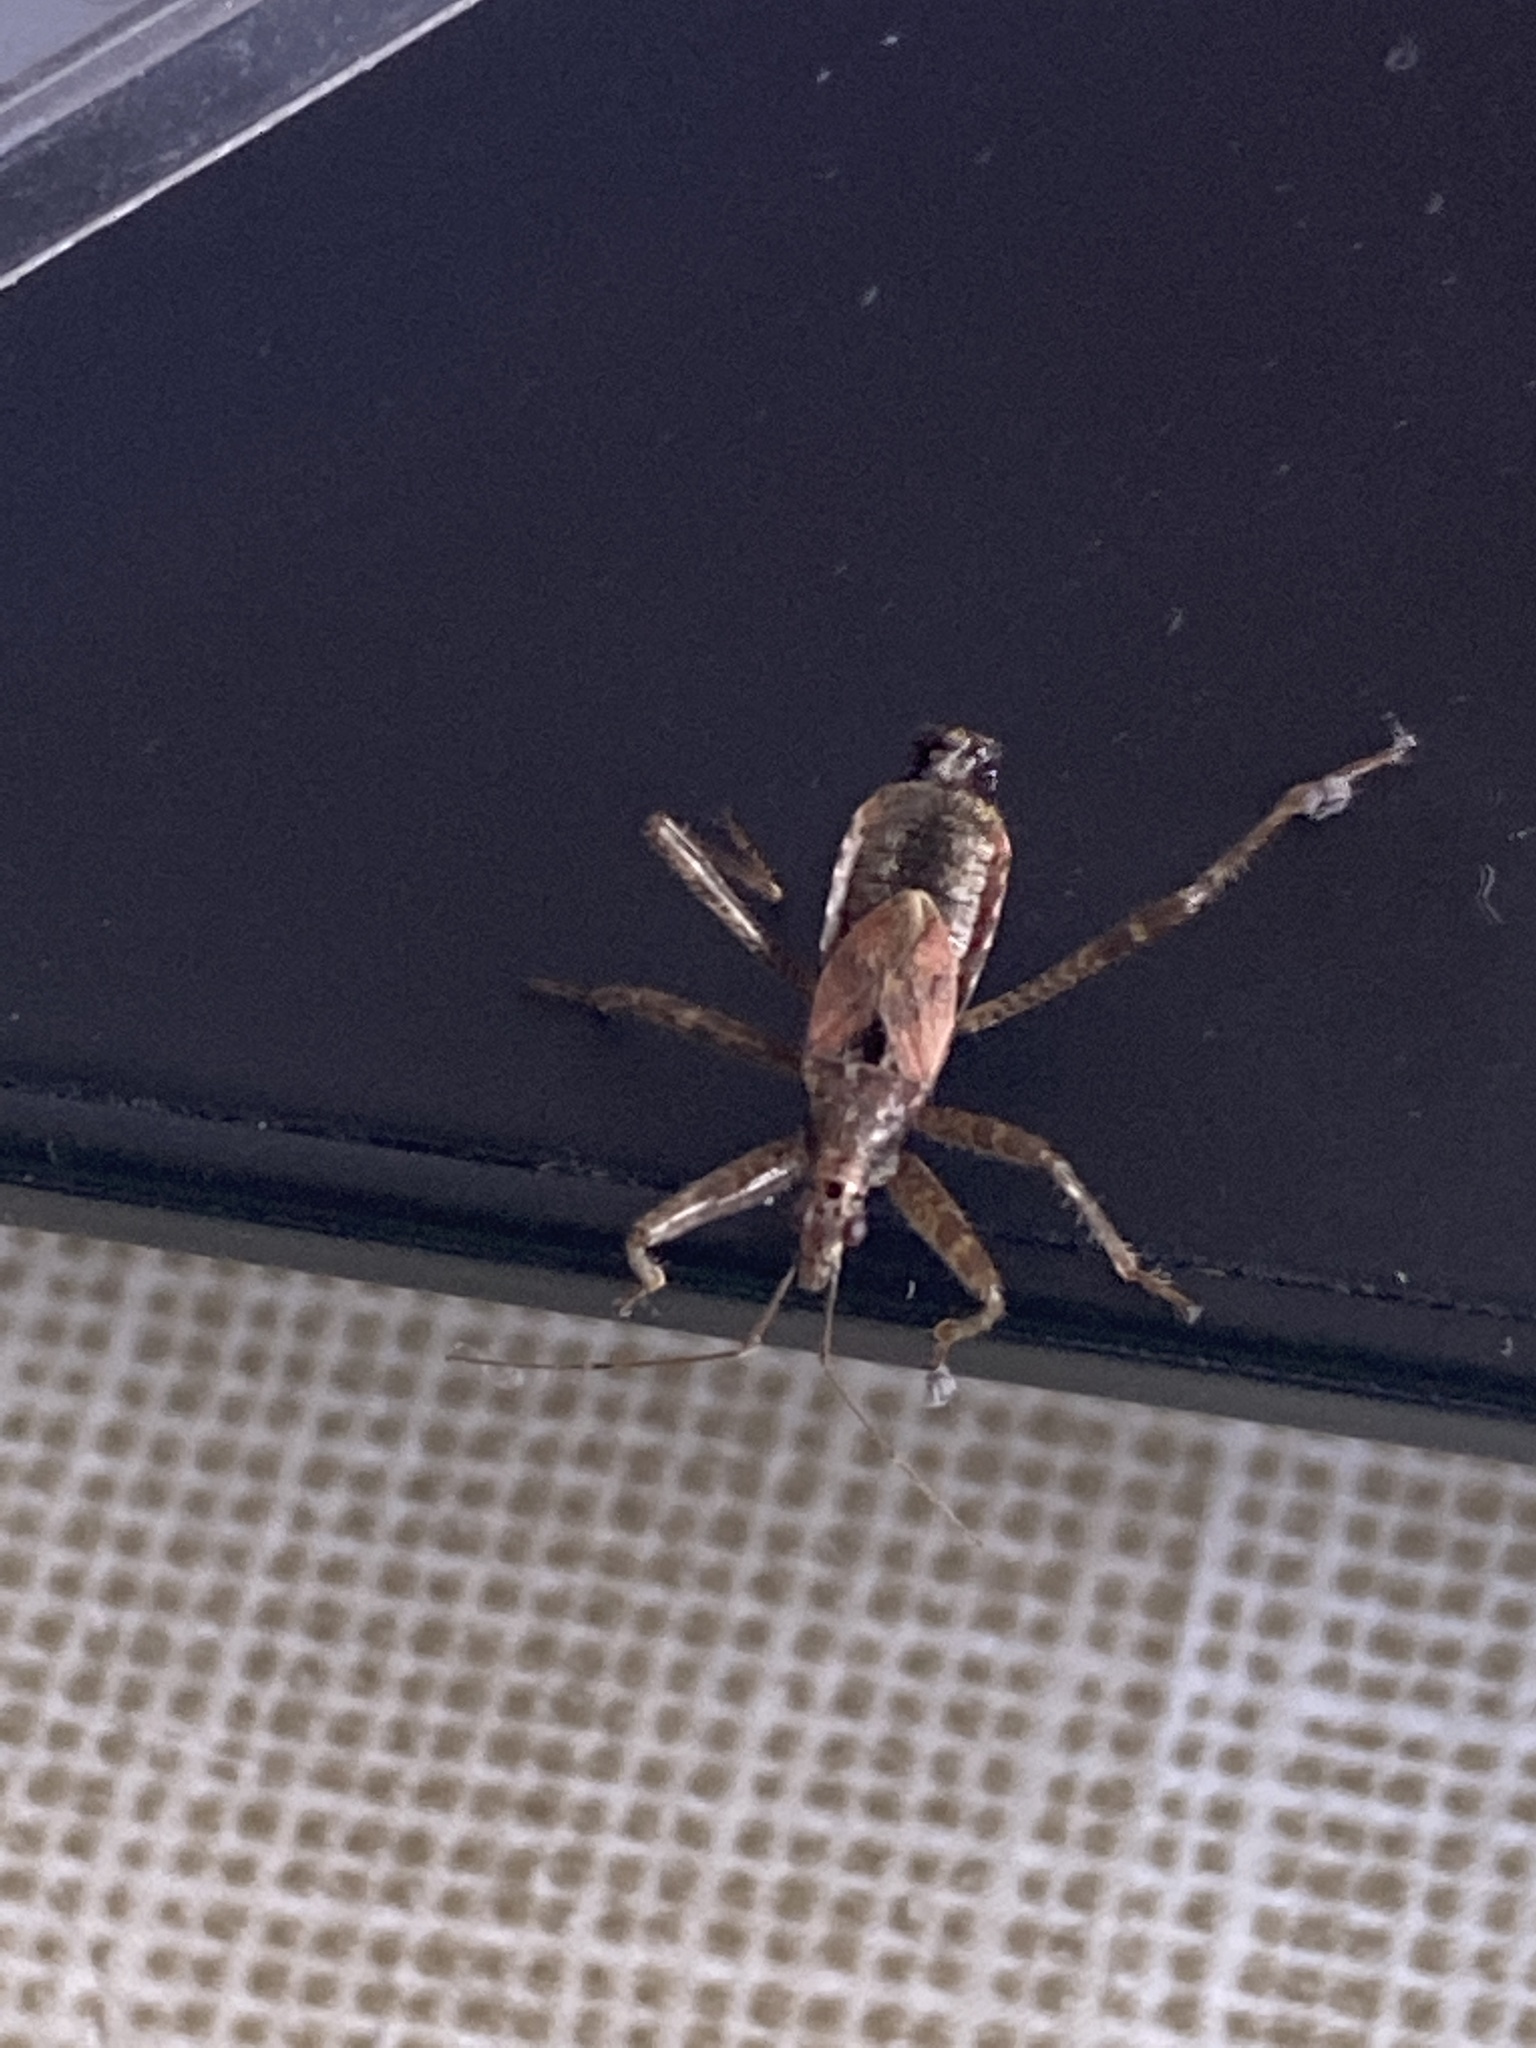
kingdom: Animalia
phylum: Arthropoda
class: Insecta
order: Hemiptera
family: Nabidae
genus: Himacerus
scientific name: Himacerus apterus
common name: Tree damsel bug
